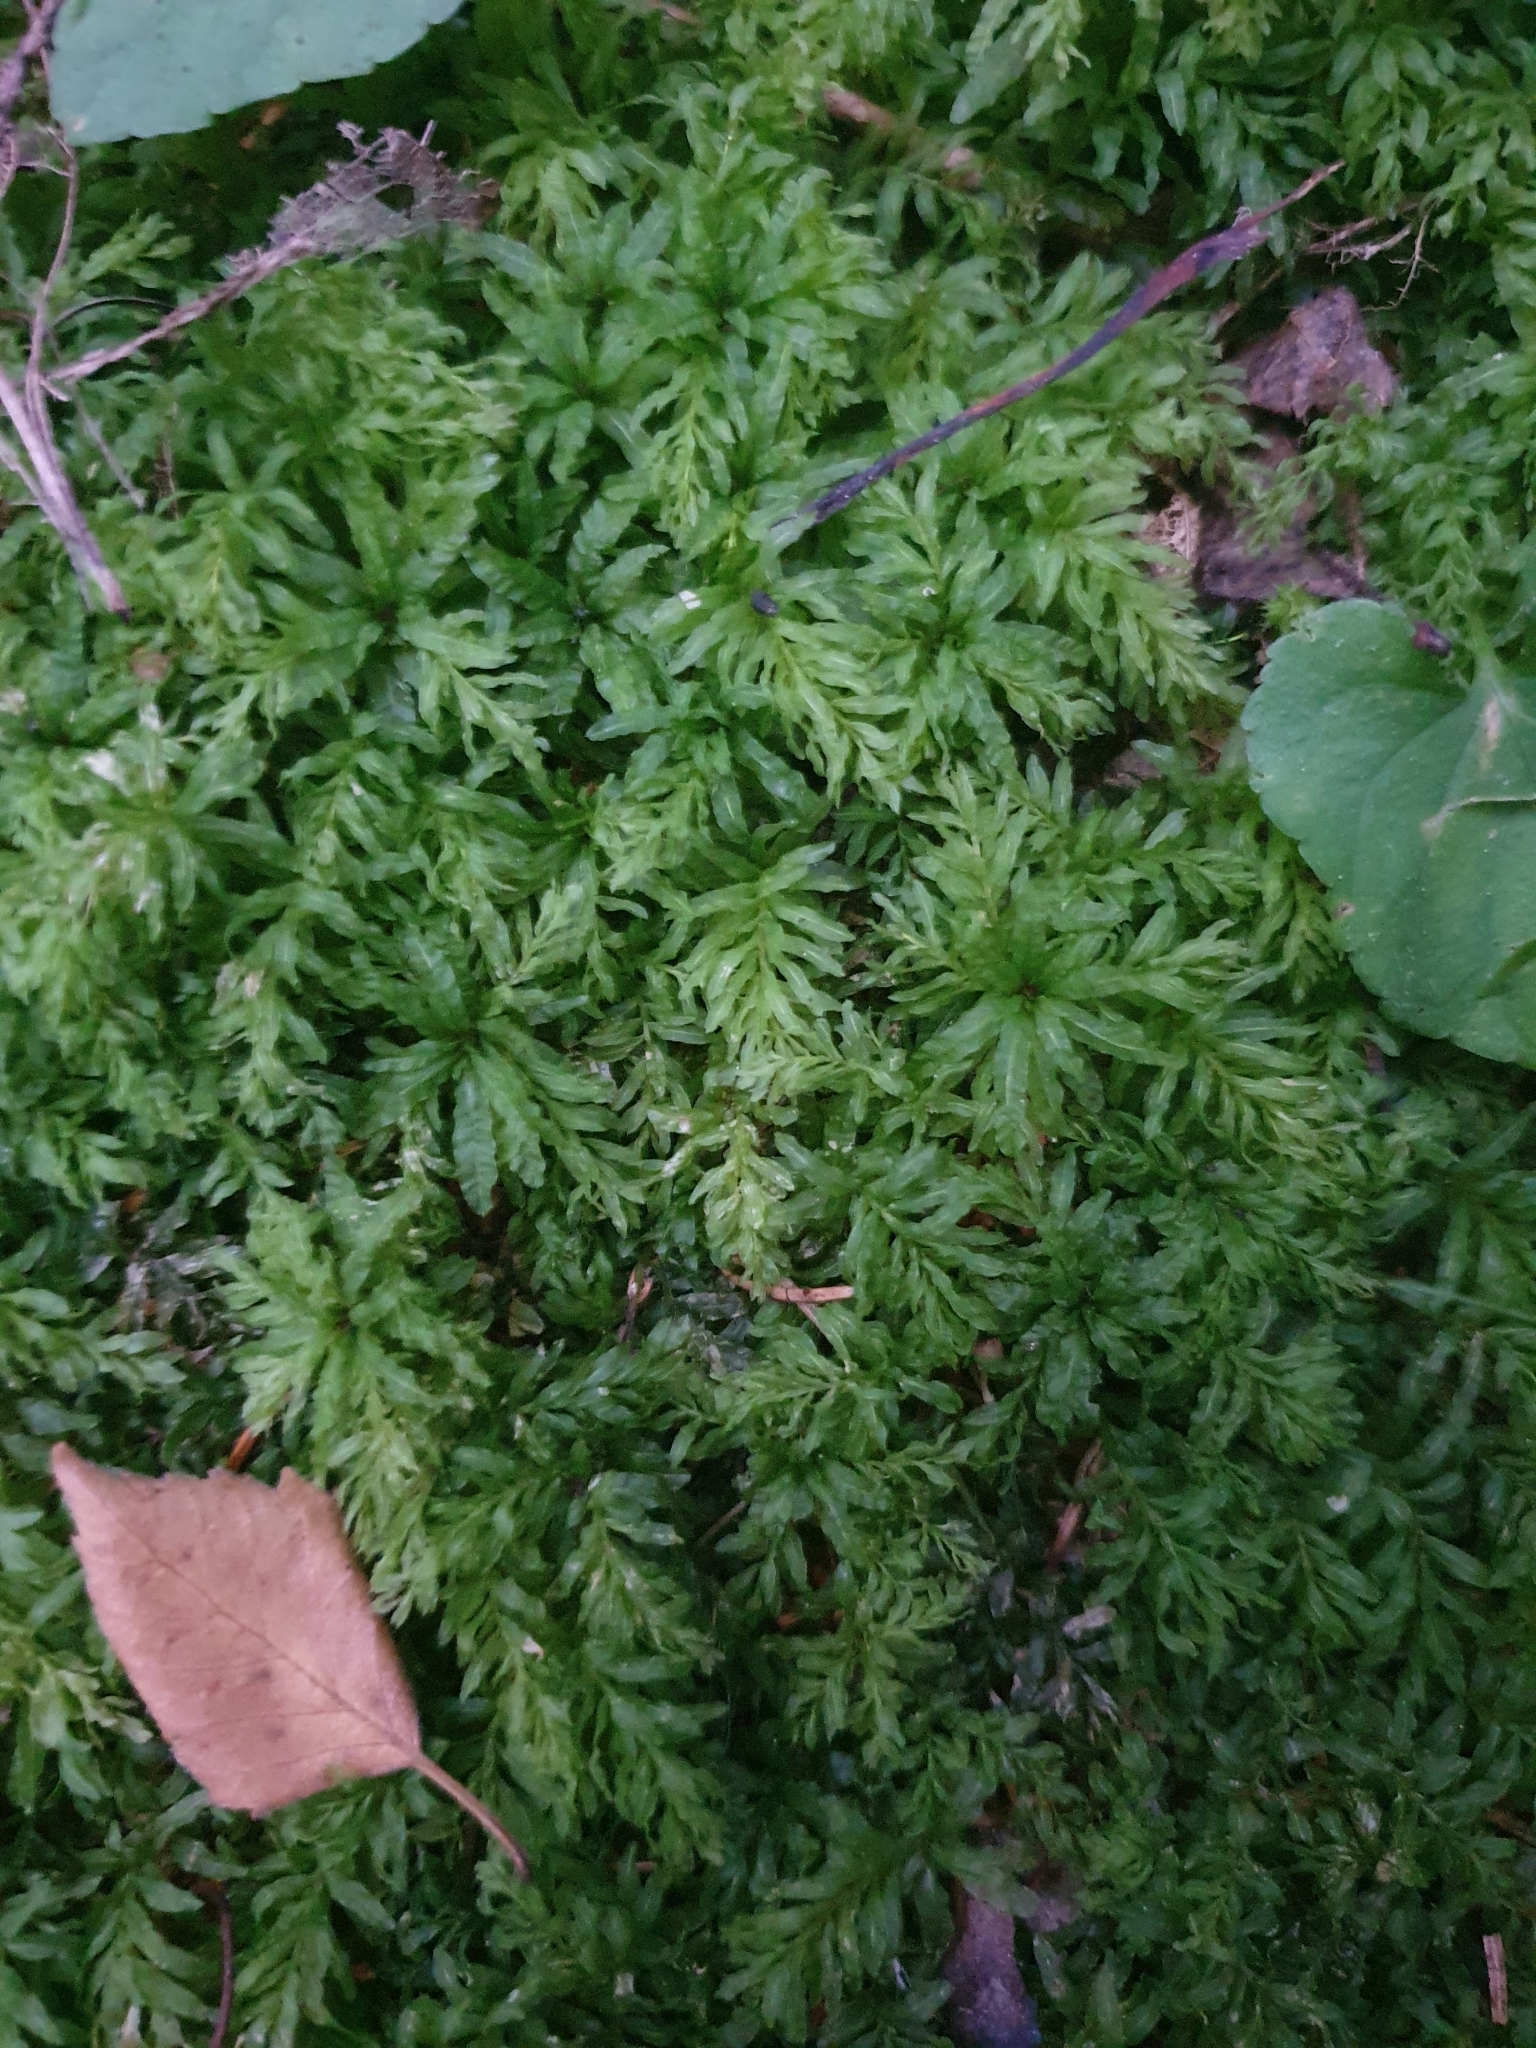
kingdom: Plantae
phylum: Bryophyta
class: Bryopsida
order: Bryales
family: Mniaceae
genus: Plagiomnium
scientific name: Plagiomnium undulatum
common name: Hart's-tongue thyme-moss
